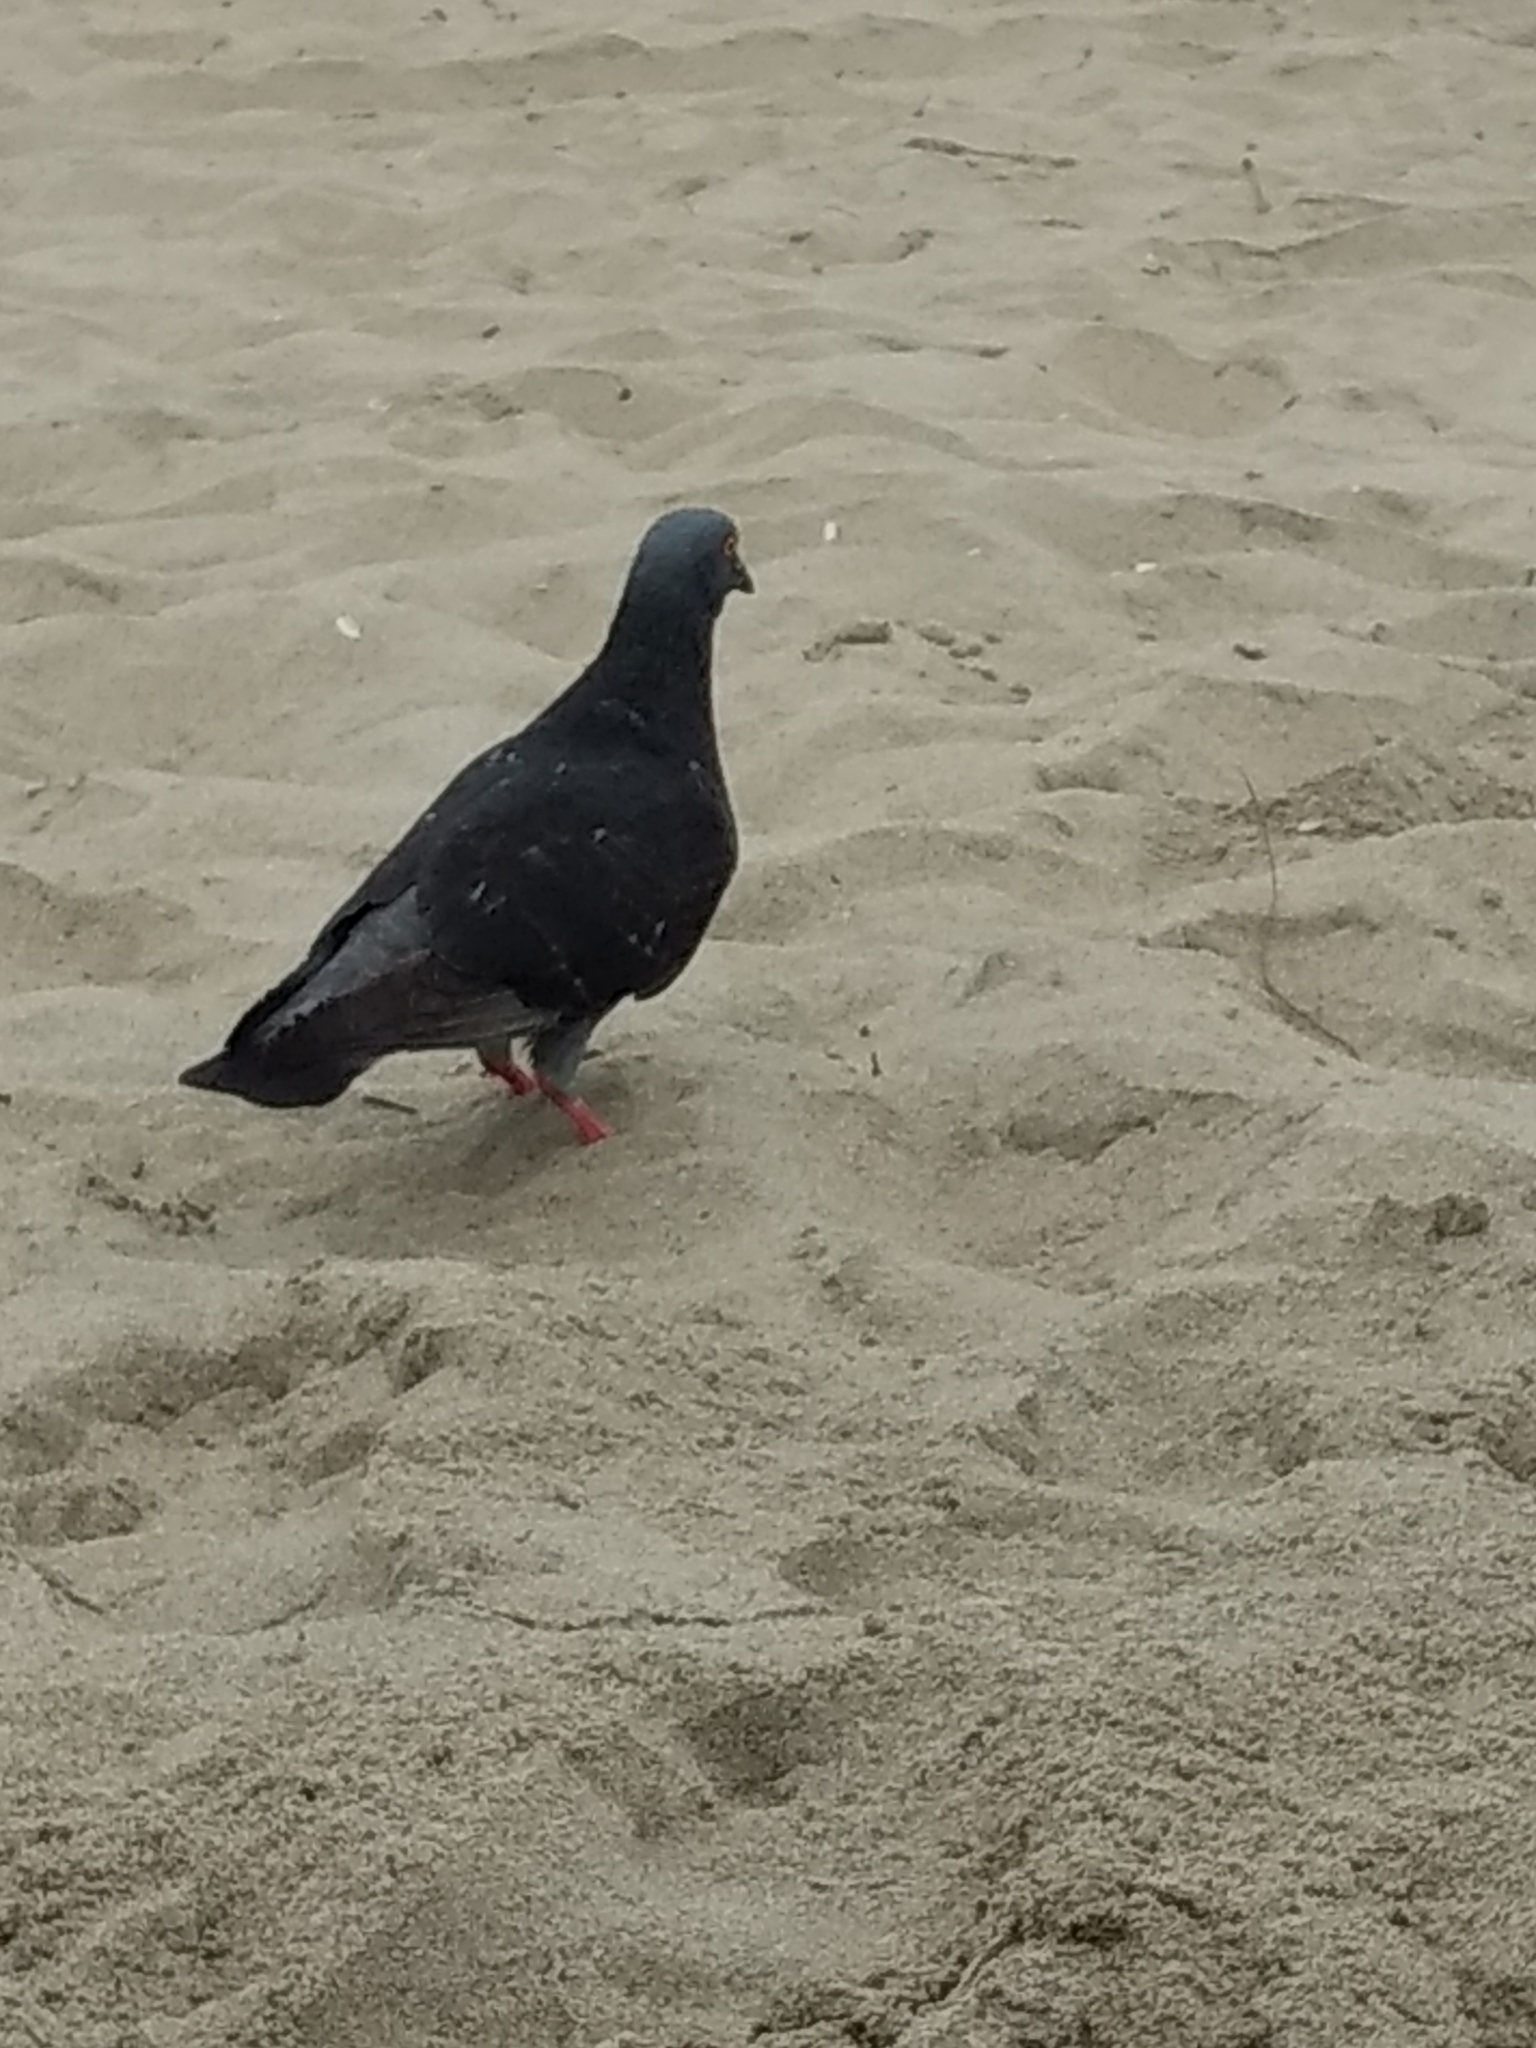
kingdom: Animalia
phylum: Chordata
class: Aves
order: Columbiformes
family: Columbidae
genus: Columba
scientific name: Columba livia
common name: Rock pigeon
